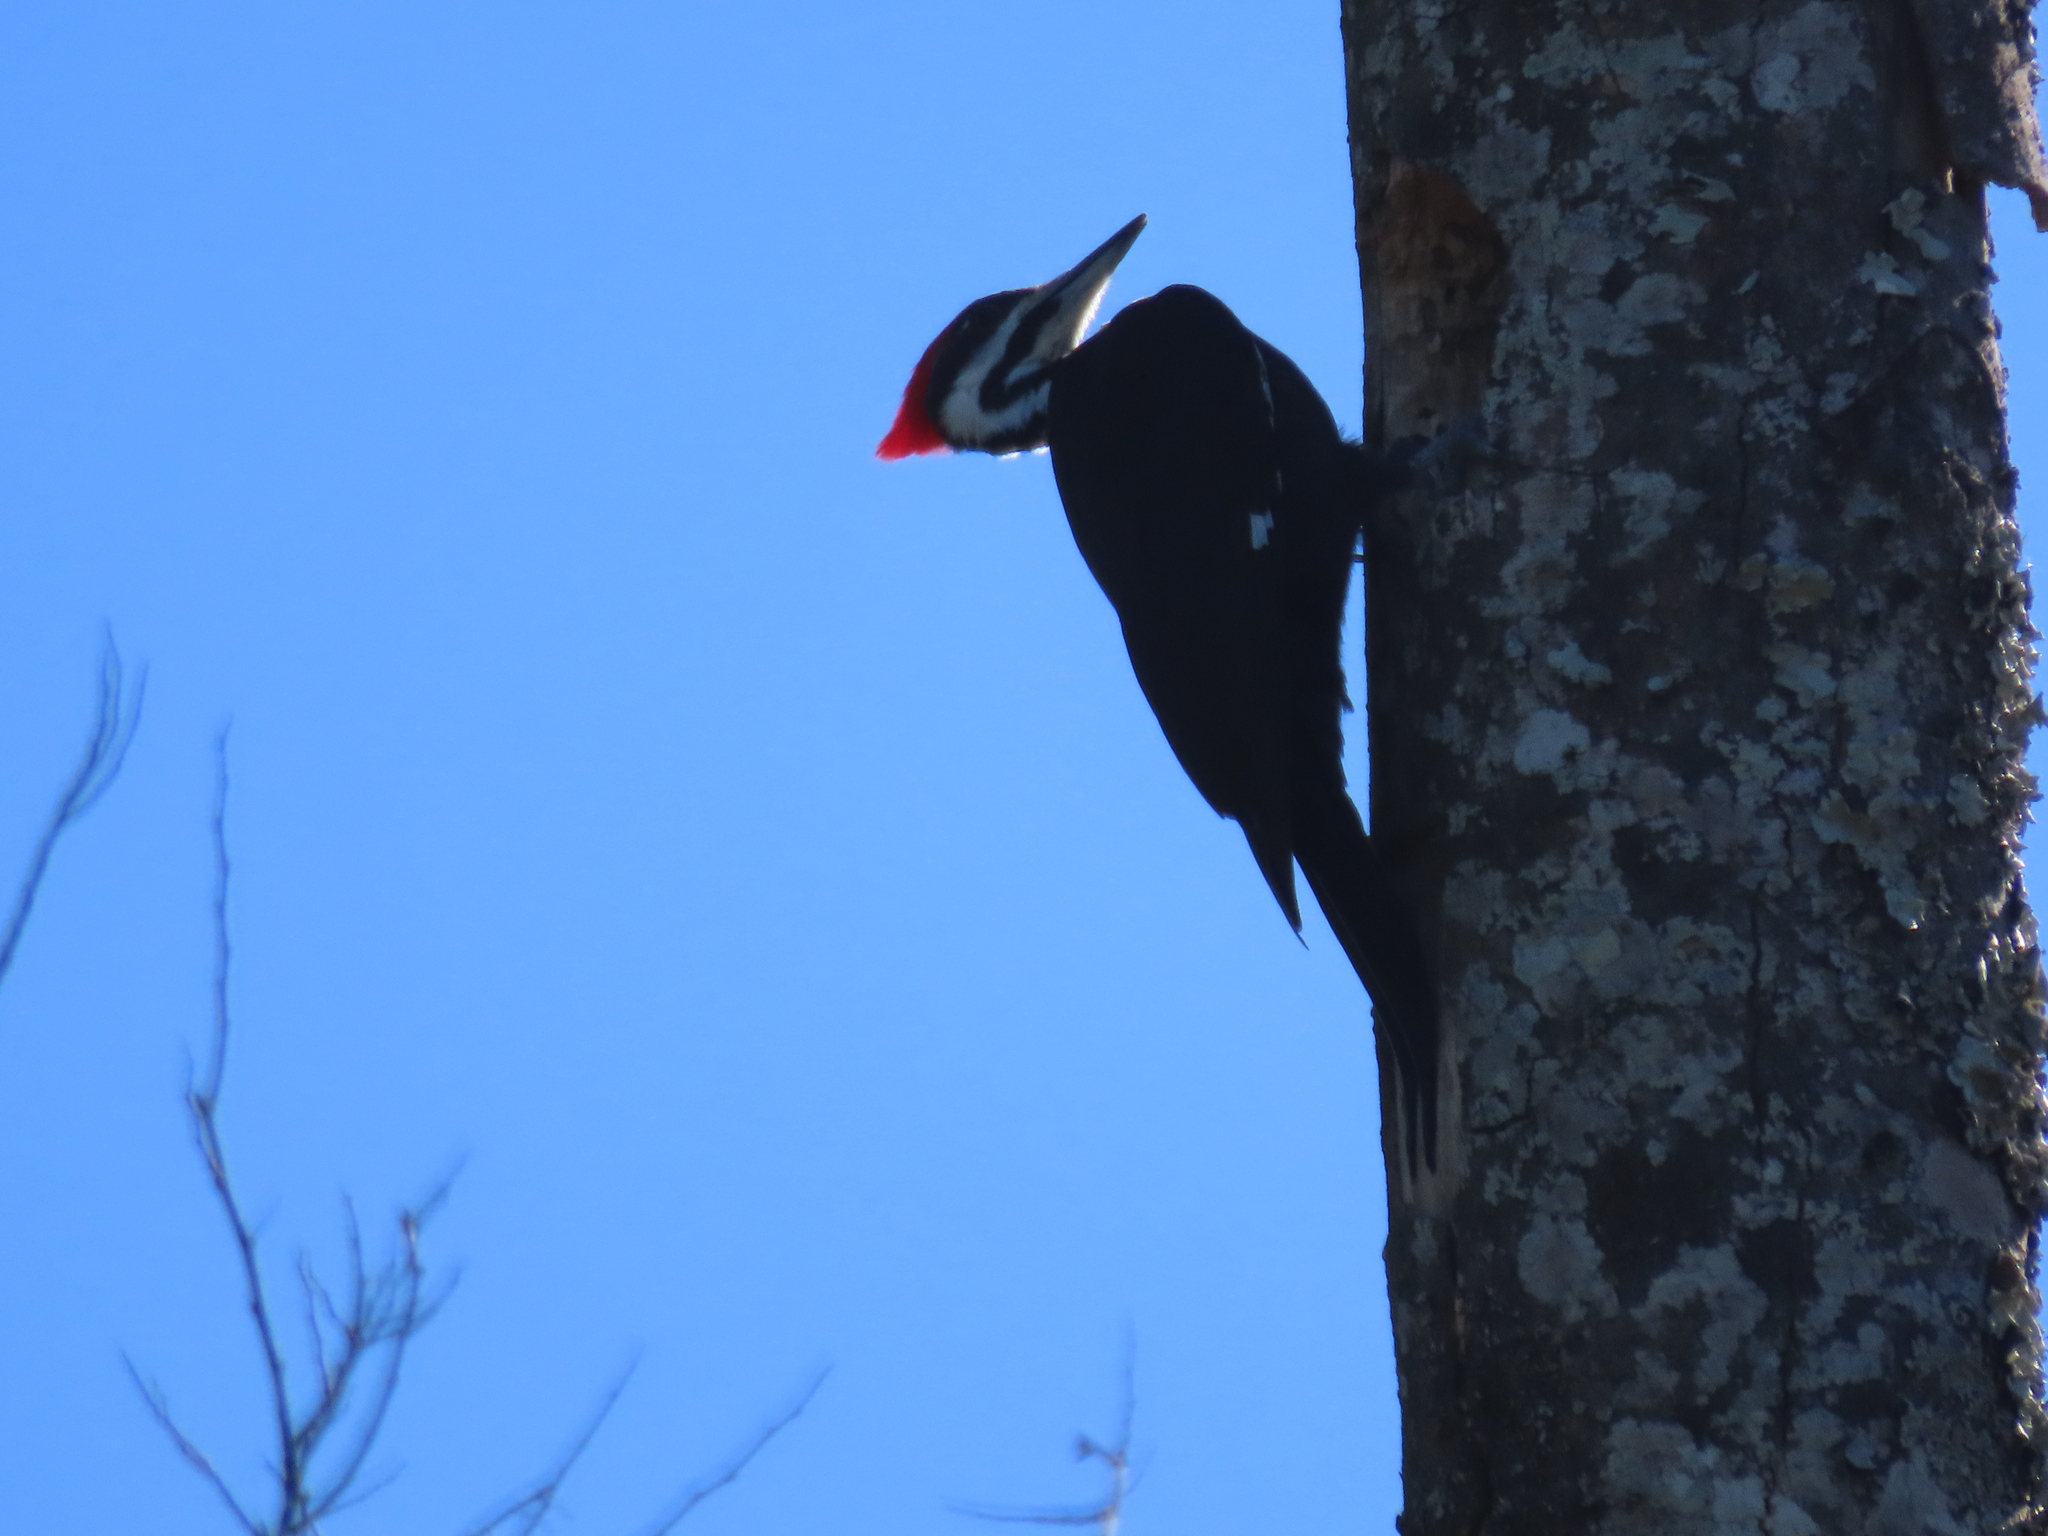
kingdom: Animalia
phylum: Chordata
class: Aves
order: Piciformes
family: Picidae
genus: Dryocopus
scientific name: Dryocopus pileatus
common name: Pileated woodpecker
